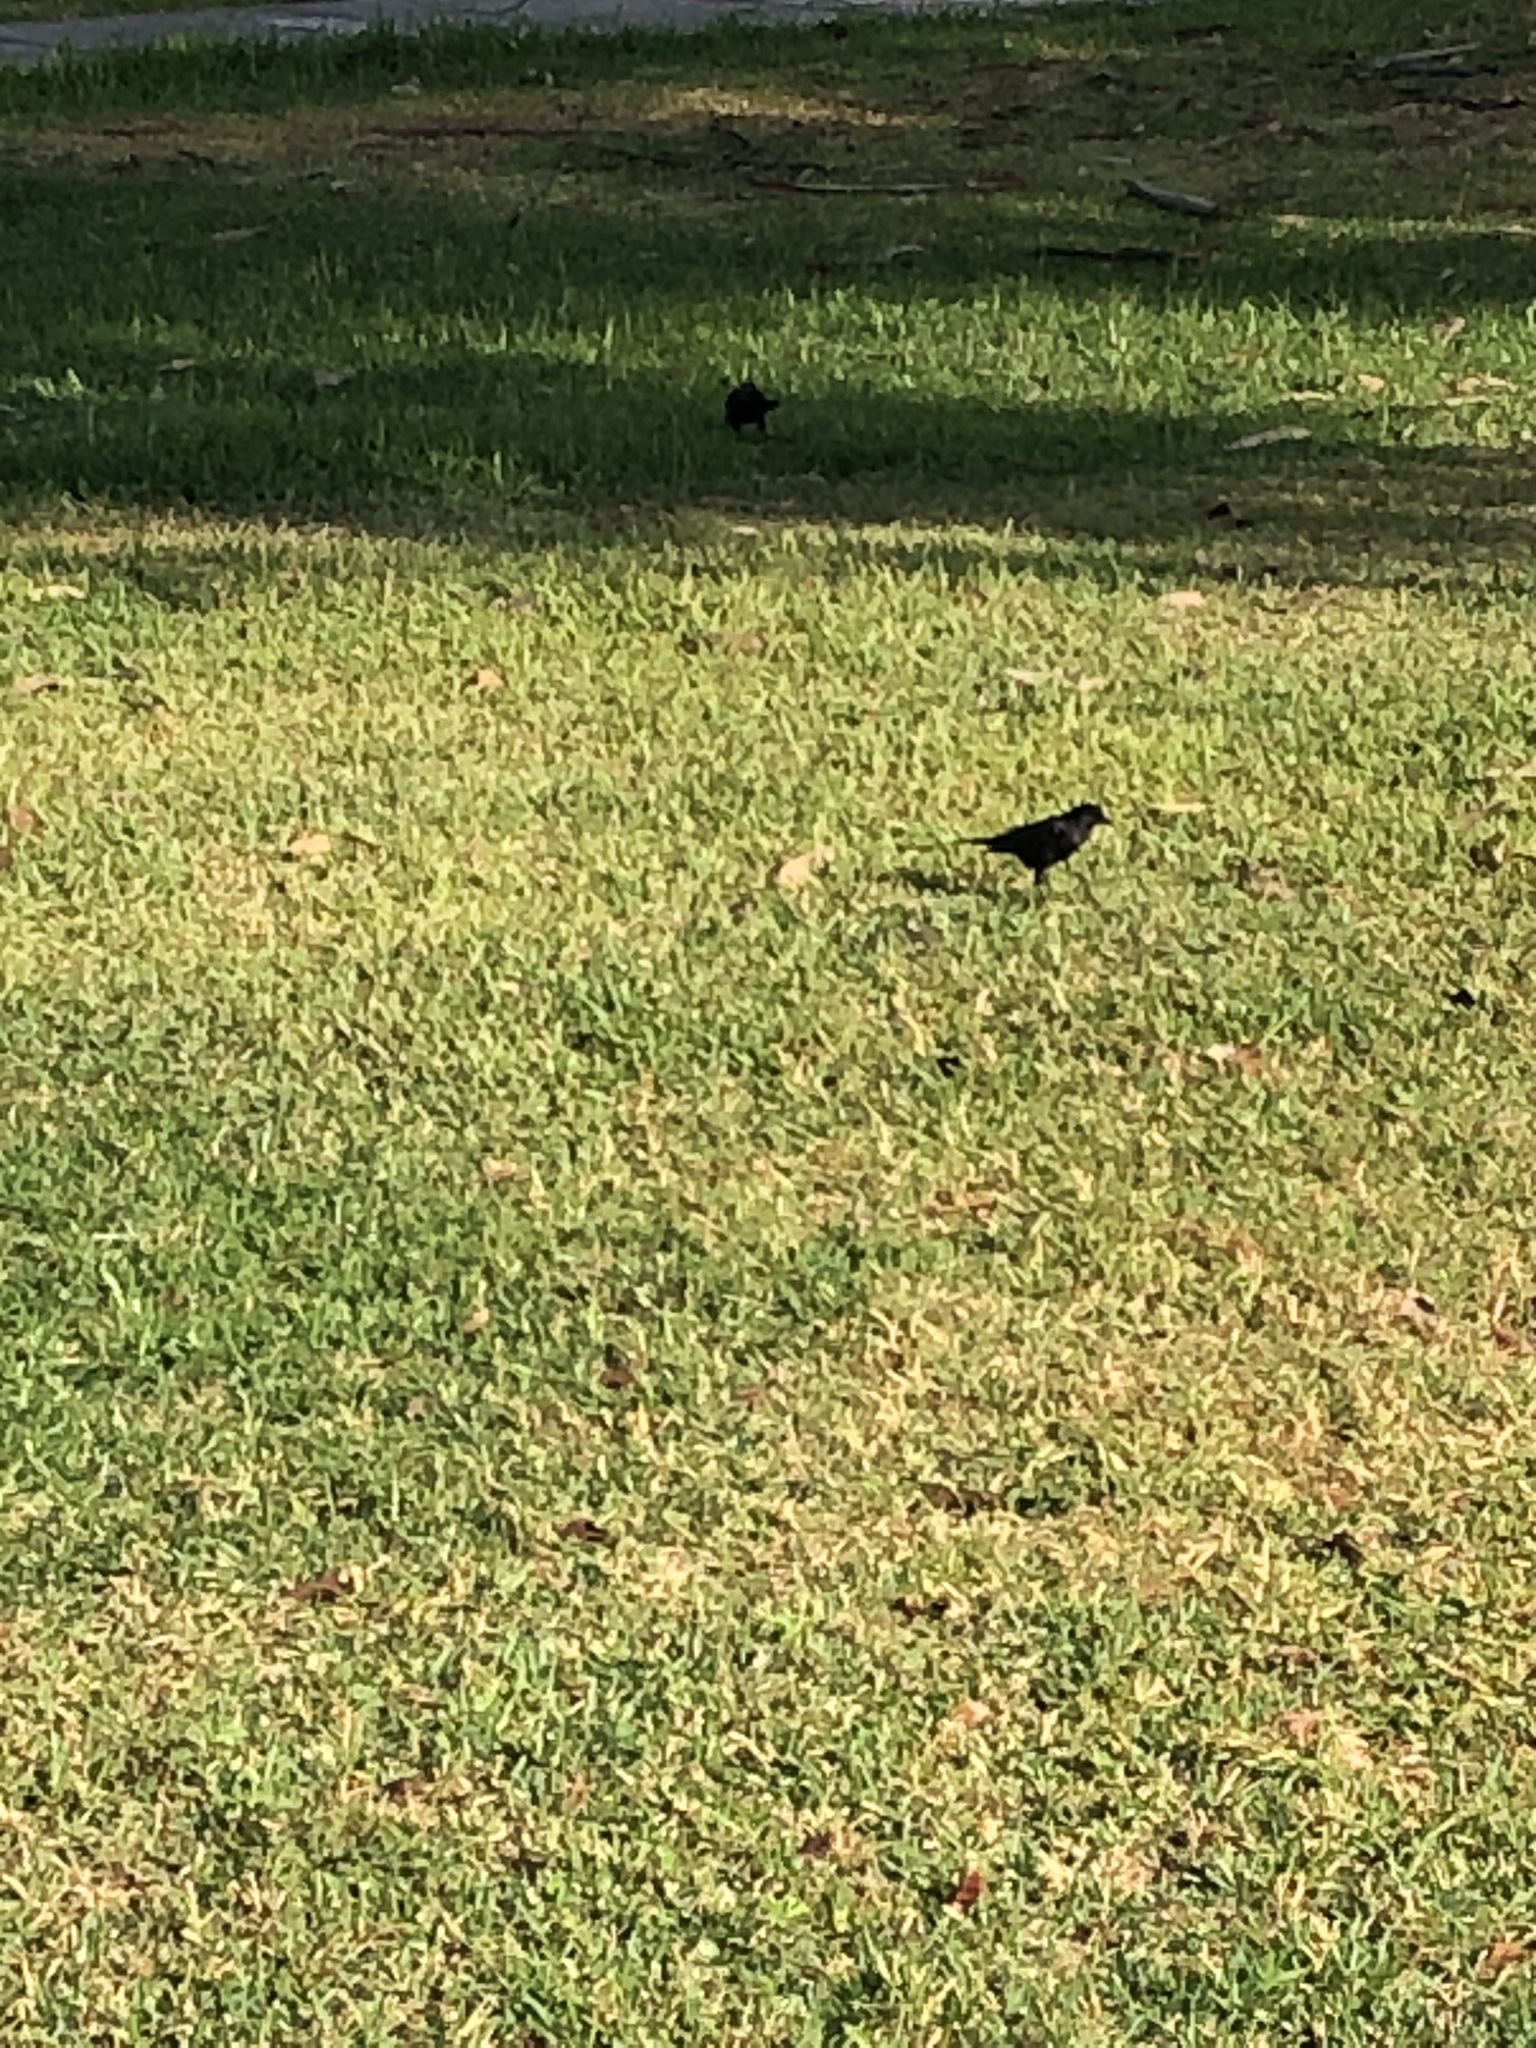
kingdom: Animalia
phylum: Chordata
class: Aves
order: Passeriformes
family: Icteridae
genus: Molothrus
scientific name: Molothrus bonariensis
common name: Shiny cowbird
